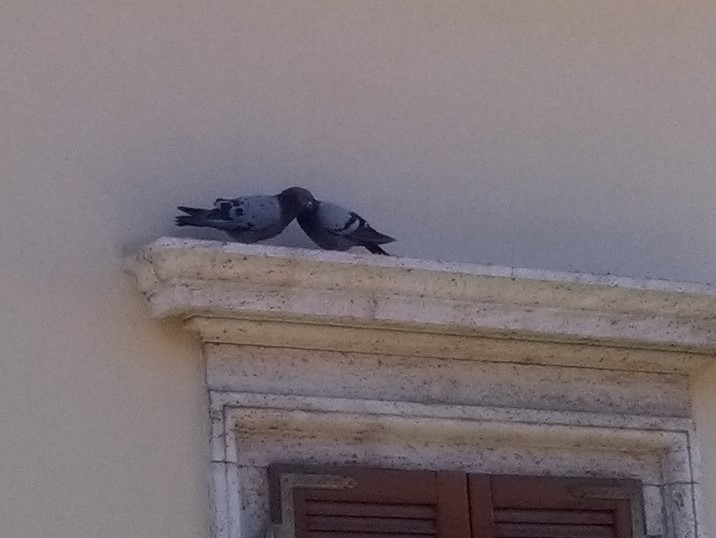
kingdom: Animalia
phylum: Chordata
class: Aves
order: Columbiformes
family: Columbidae
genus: Columba
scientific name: Columba livia
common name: Rock pigeon
